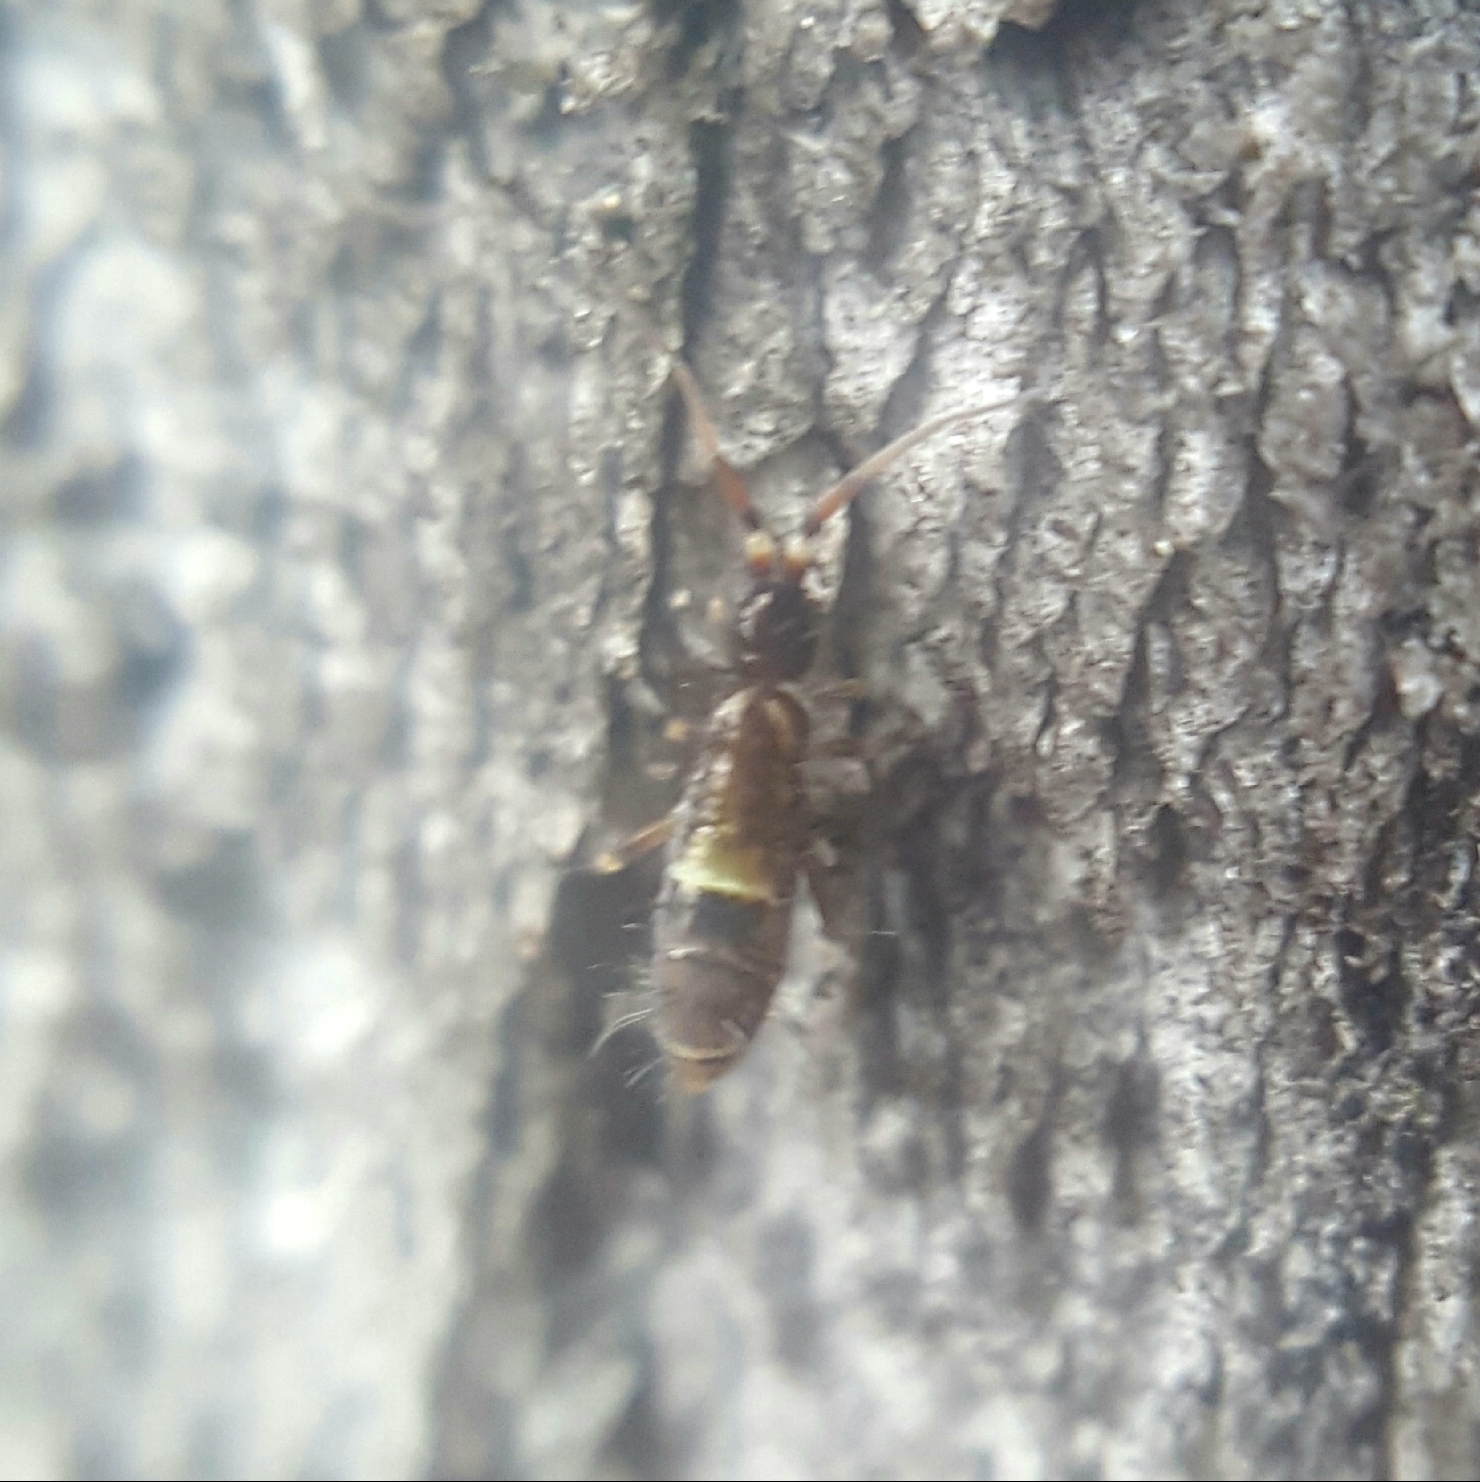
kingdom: Animalia
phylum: Arthropoda
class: Collembola
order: Entomobryomorpha
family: Orchesellidae
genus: Orchesella
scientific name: Orchesella cincta
